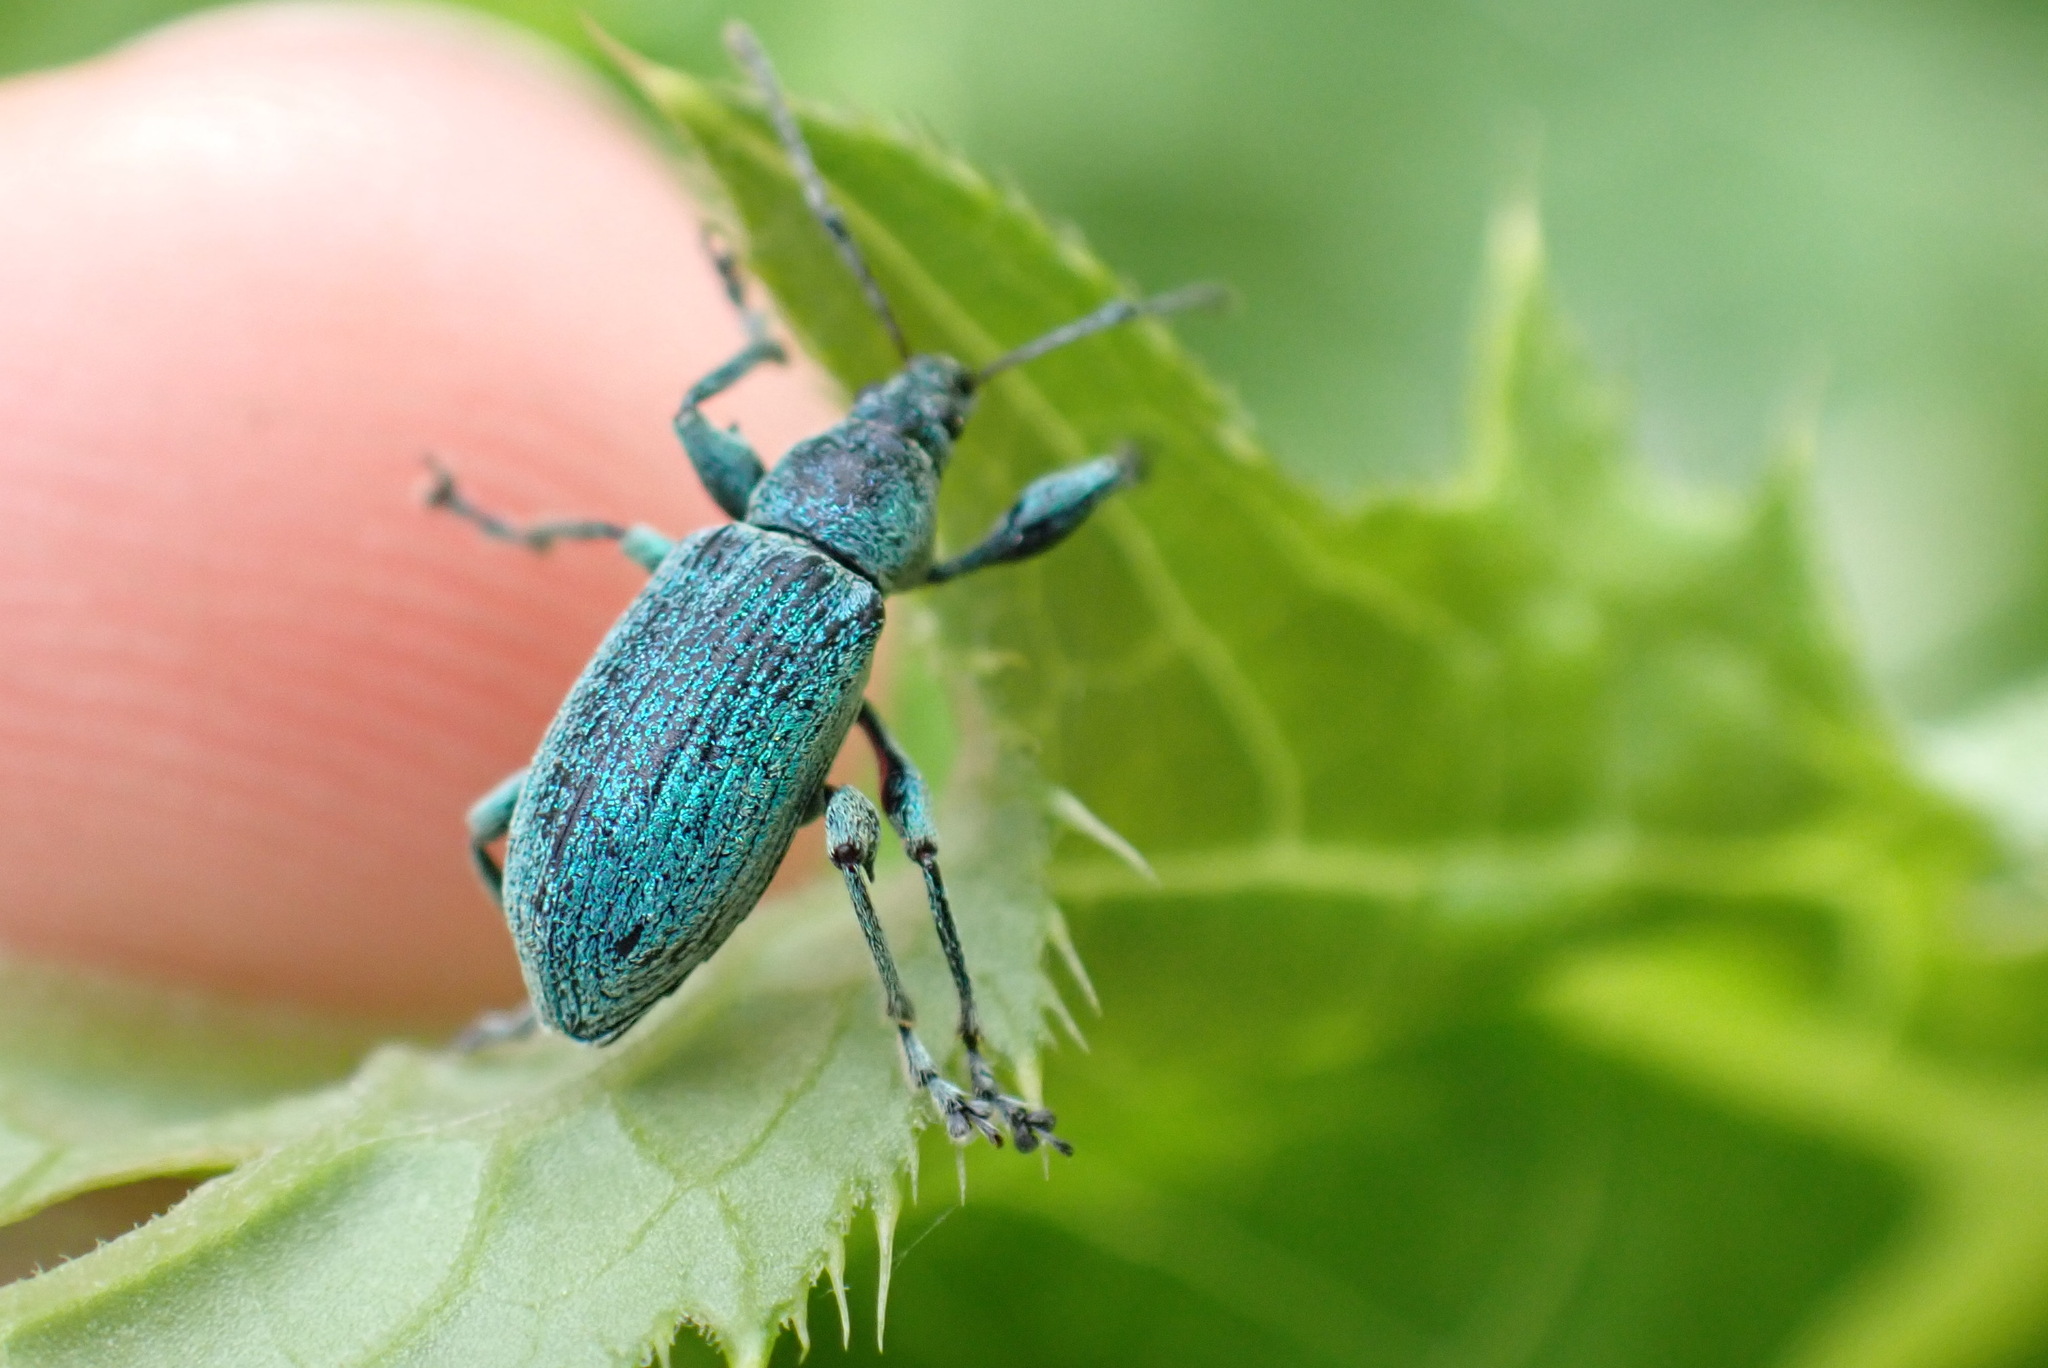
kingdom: Animalia
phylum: Arthropoda
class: Insecta
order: Coleoptera
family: Curculionidae
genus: Phyllobius
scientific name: Phyllobius pomaceus
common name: Green nettle weevil
